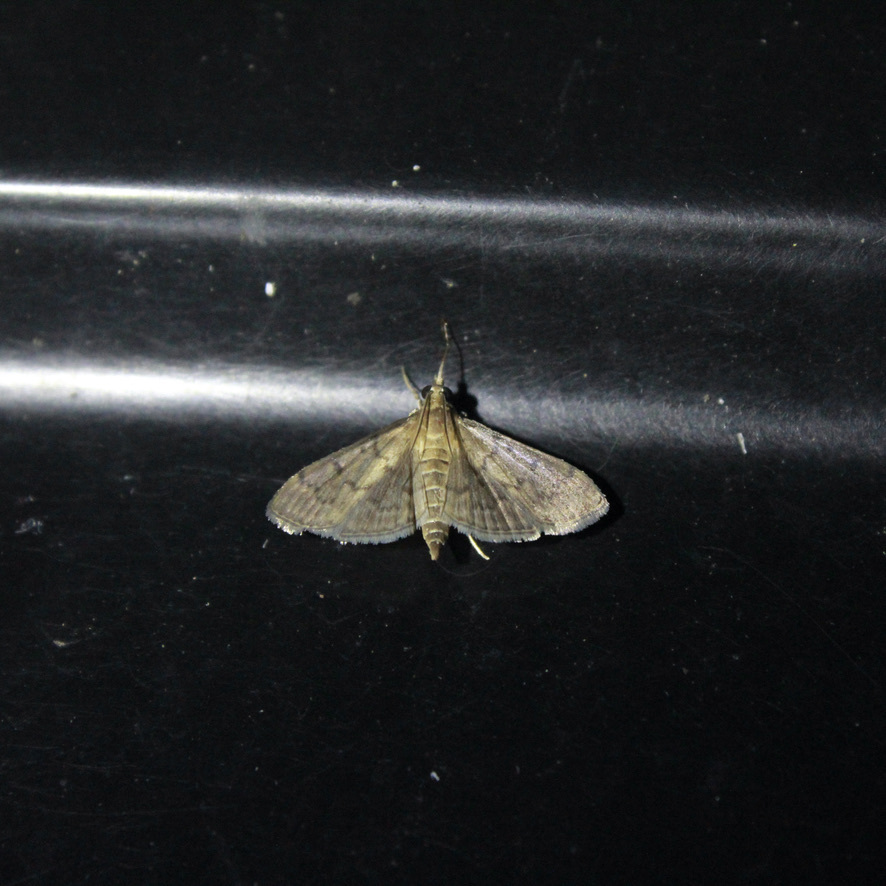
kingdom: Animalia
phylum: Arthropoda
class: Insecta
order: Lepidoptera
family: Crambidae
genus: Herpetogramma
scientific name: Herpetogramma phaeopteralis
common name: Dusky herpetogramma moth
